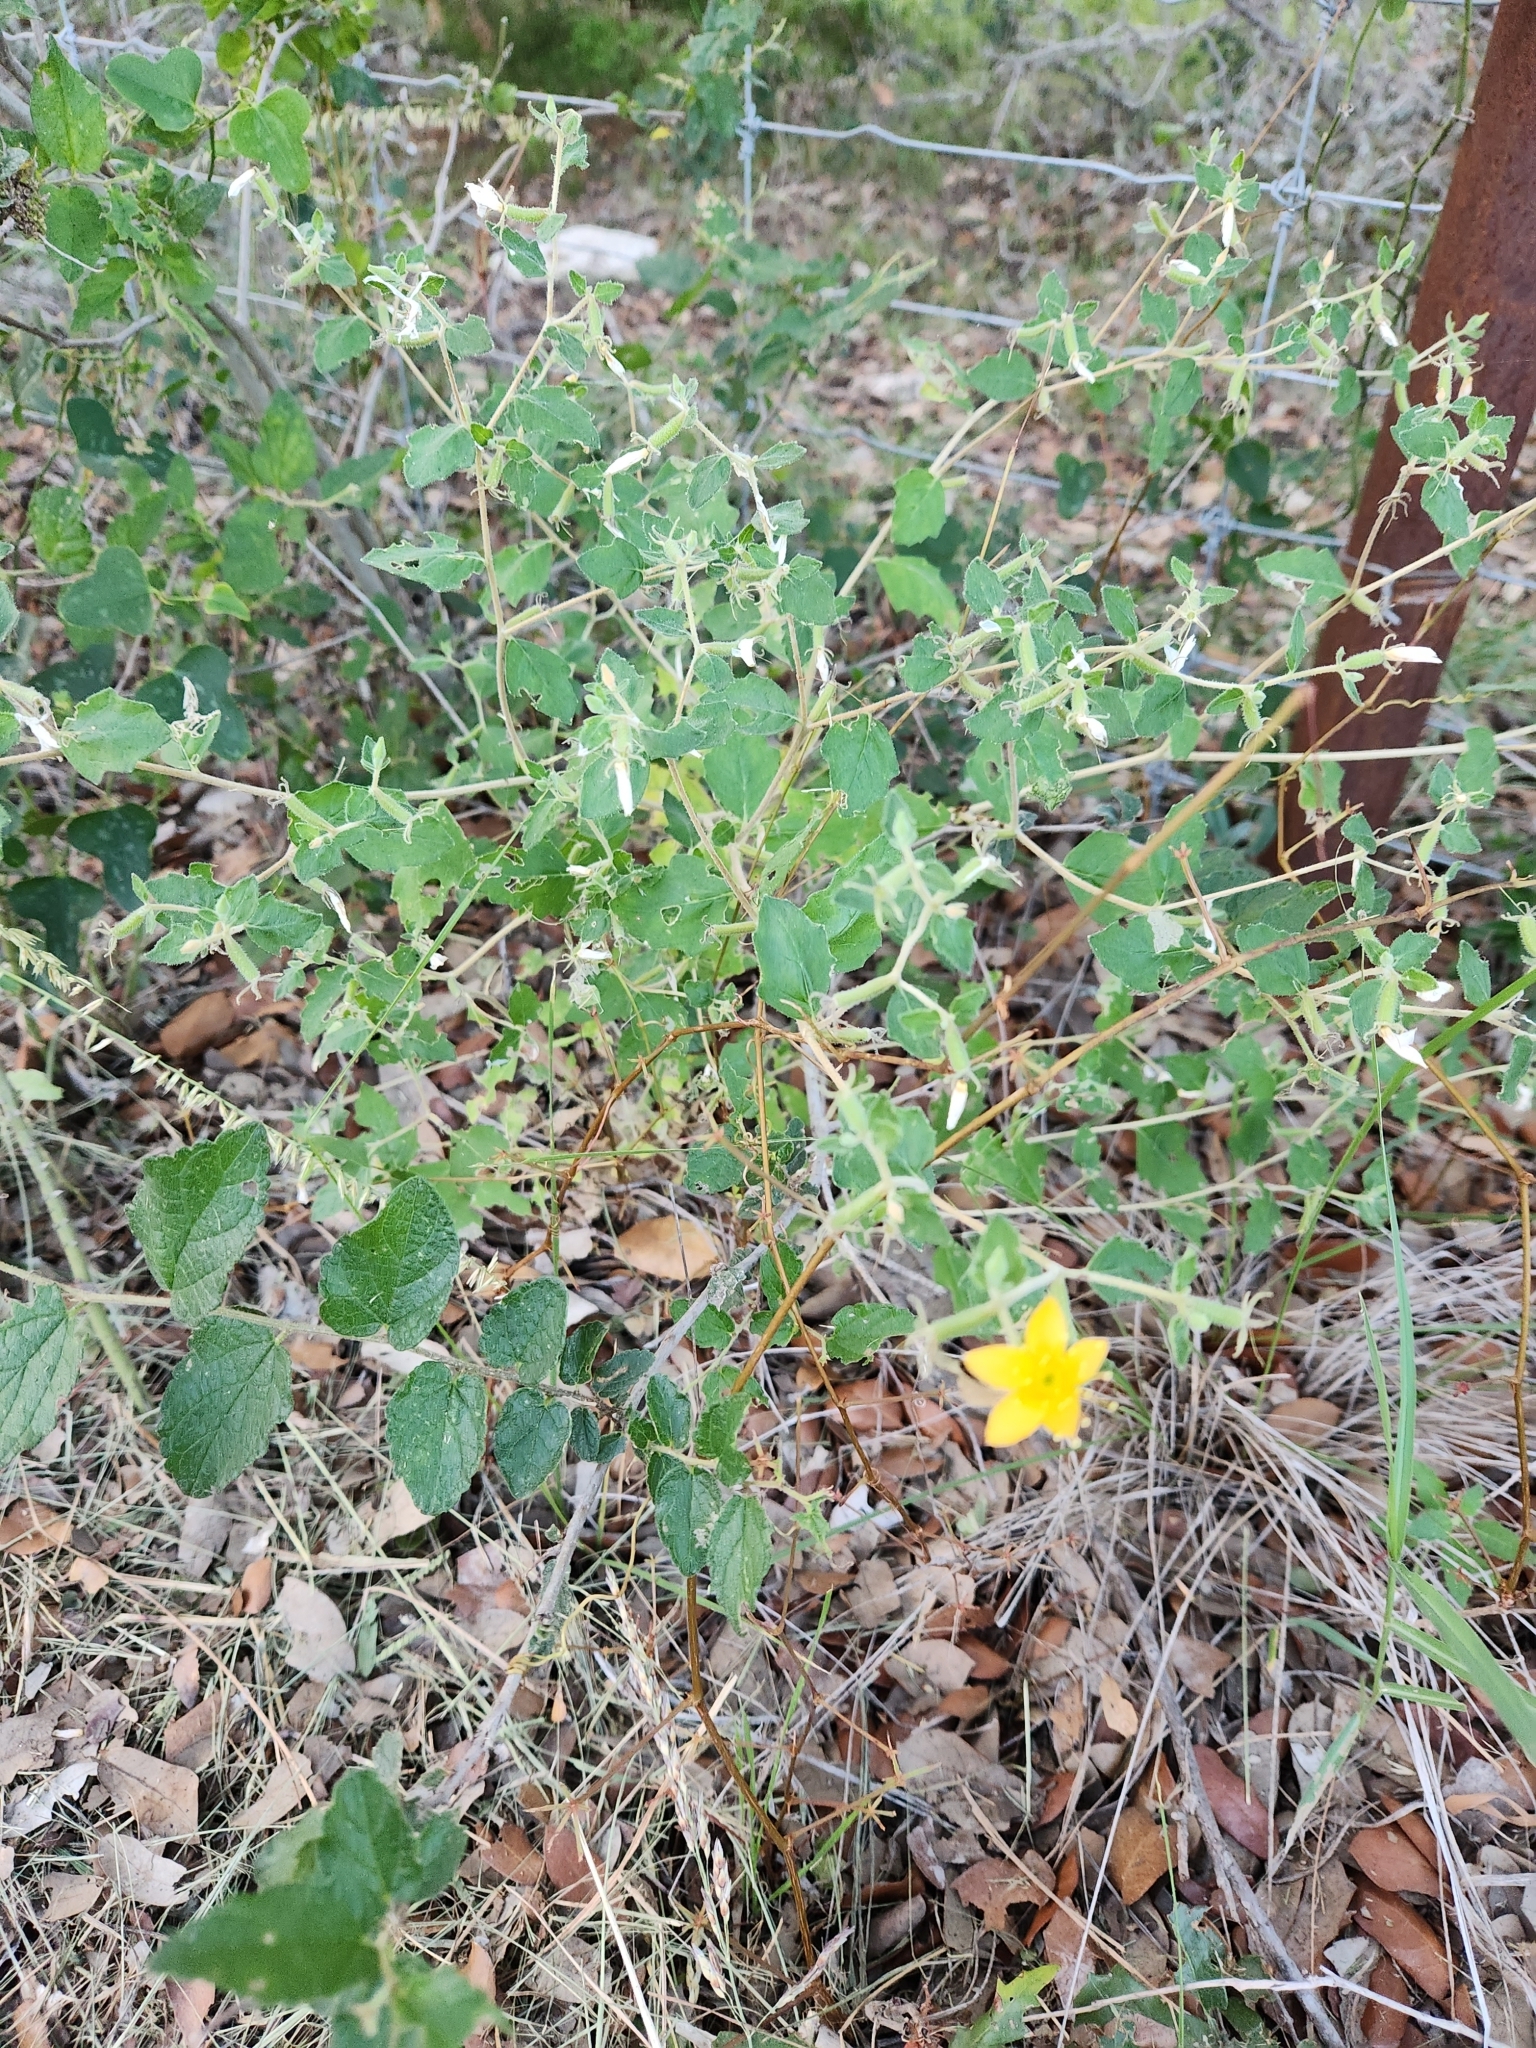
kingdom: Plantae
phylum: Tracheophyta
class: Magnoliopsida
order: Cornales
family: Loasaceae
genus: Mentzelia
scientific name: Mentzelia oligosperma
